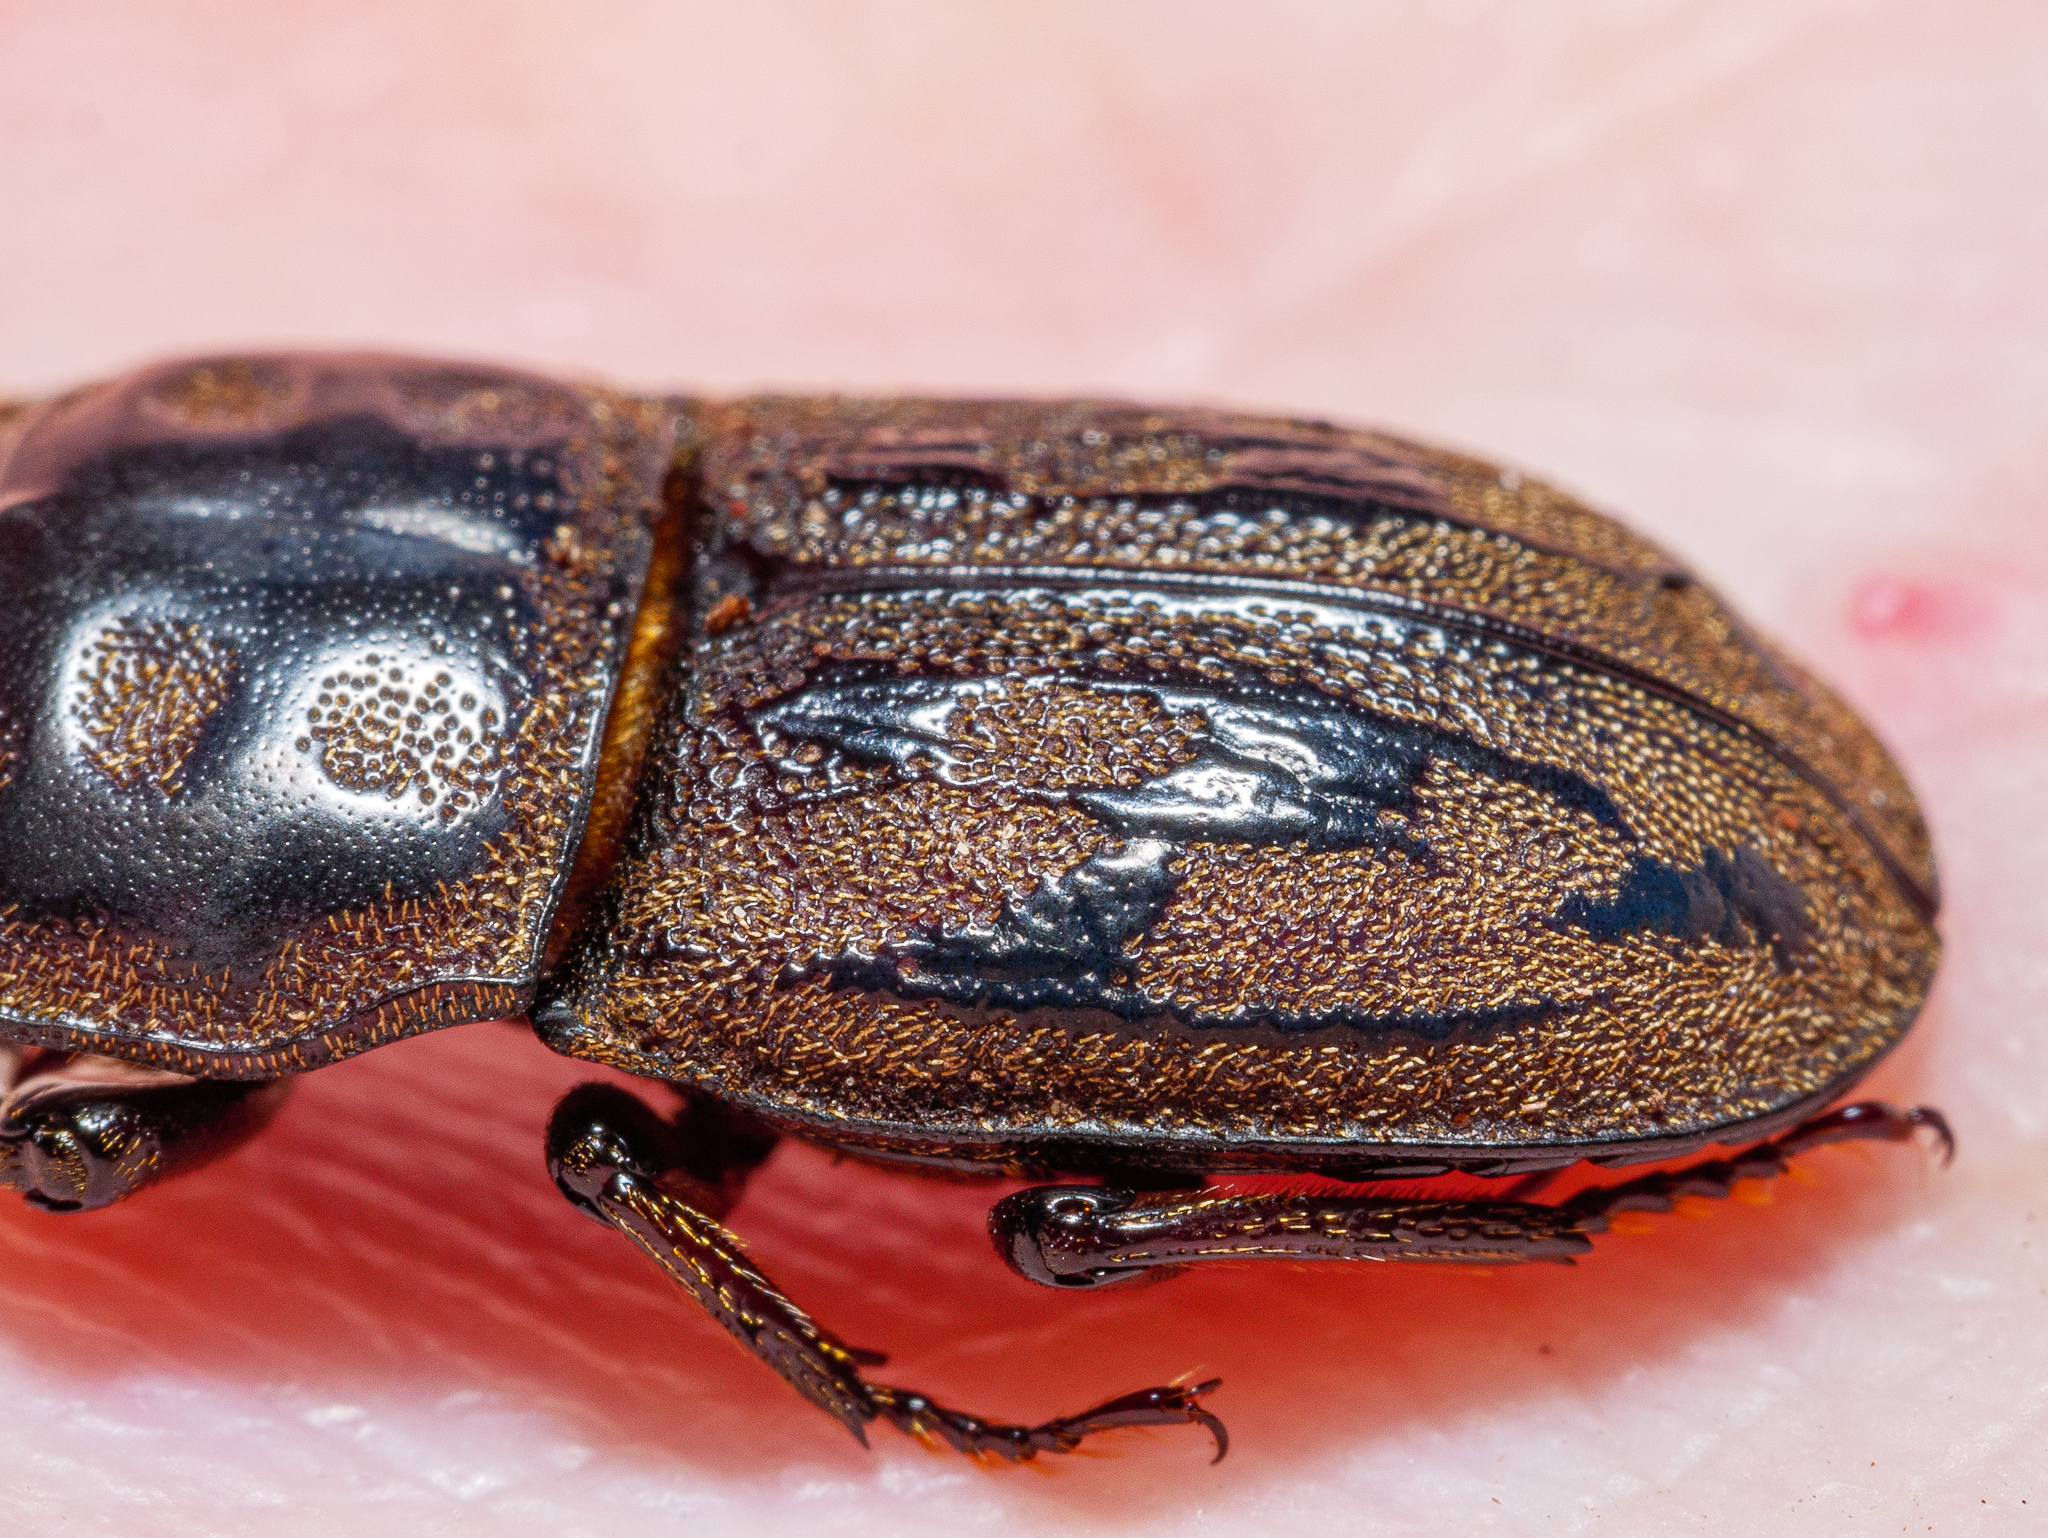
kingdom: Animalia
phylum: Arthropoda
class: Insecta
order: Coleoptera
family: Lucanidae
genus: Paralissotes
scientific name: Paralissotes reticulatus
